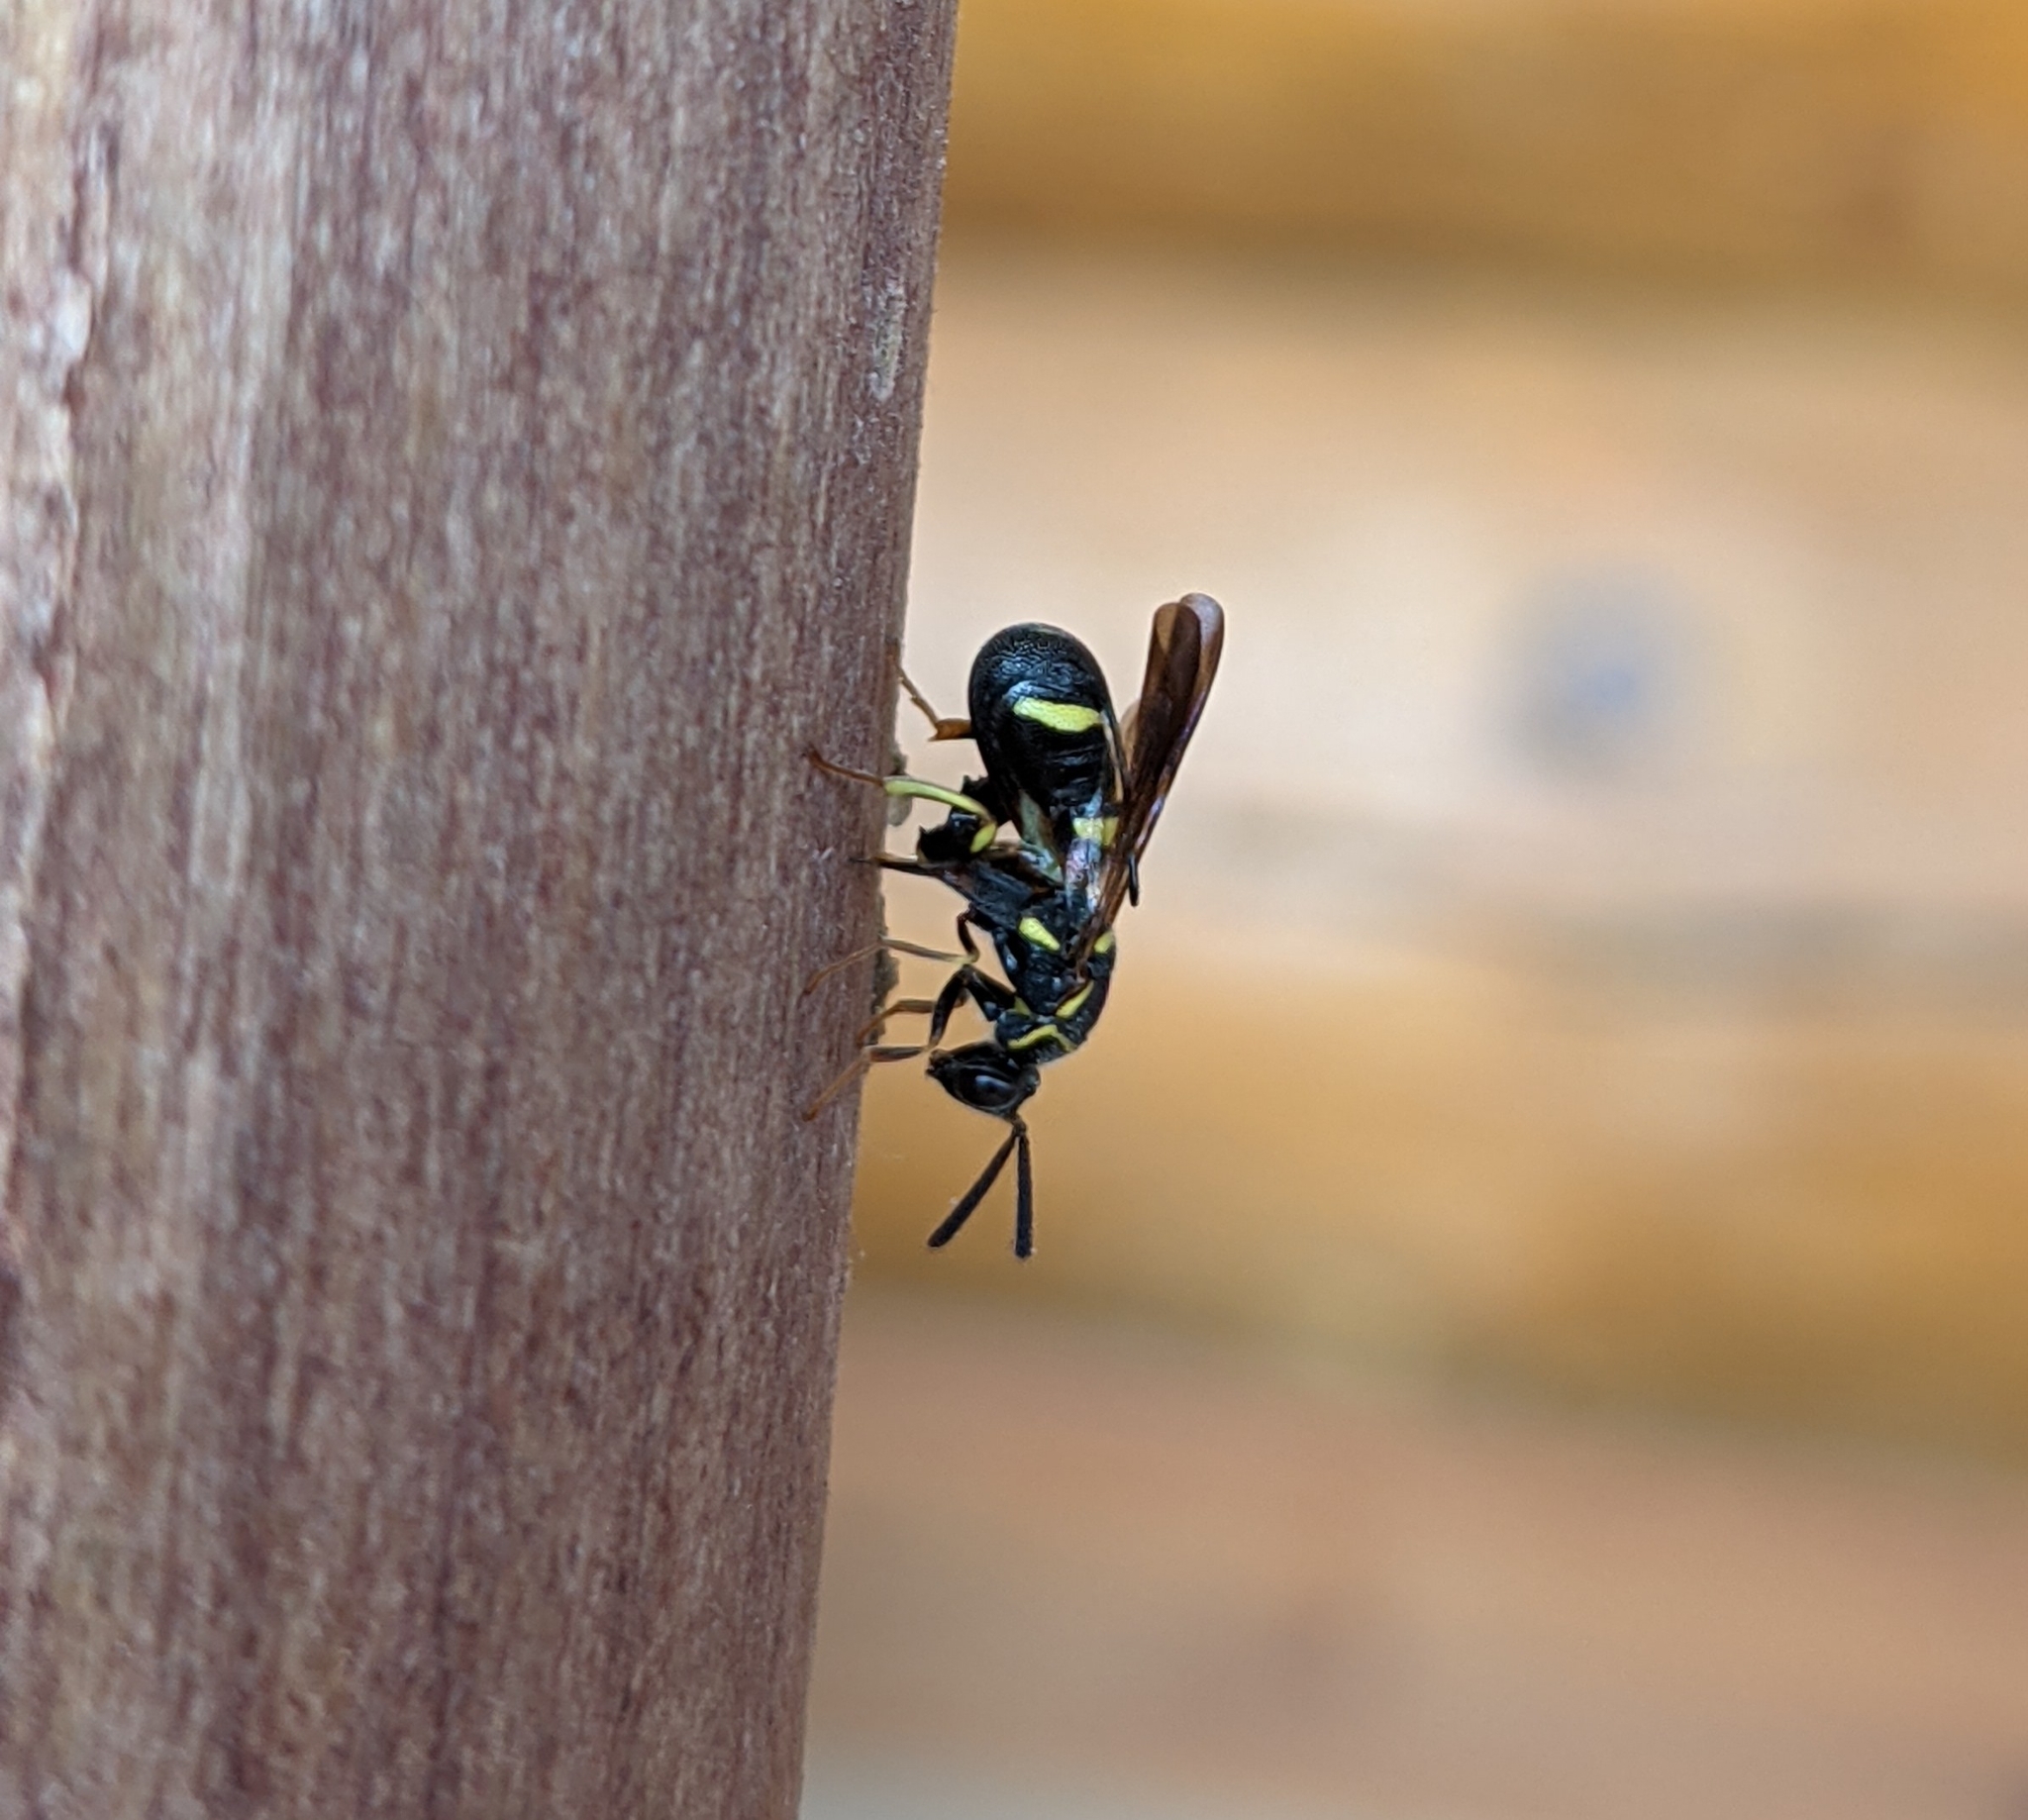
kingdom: Animalia
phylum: Arthropoda
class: Insecta
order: Hymenoptera
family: Leucospidae
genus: Leucospis
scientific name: Leucospis affinis
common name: Wasp
